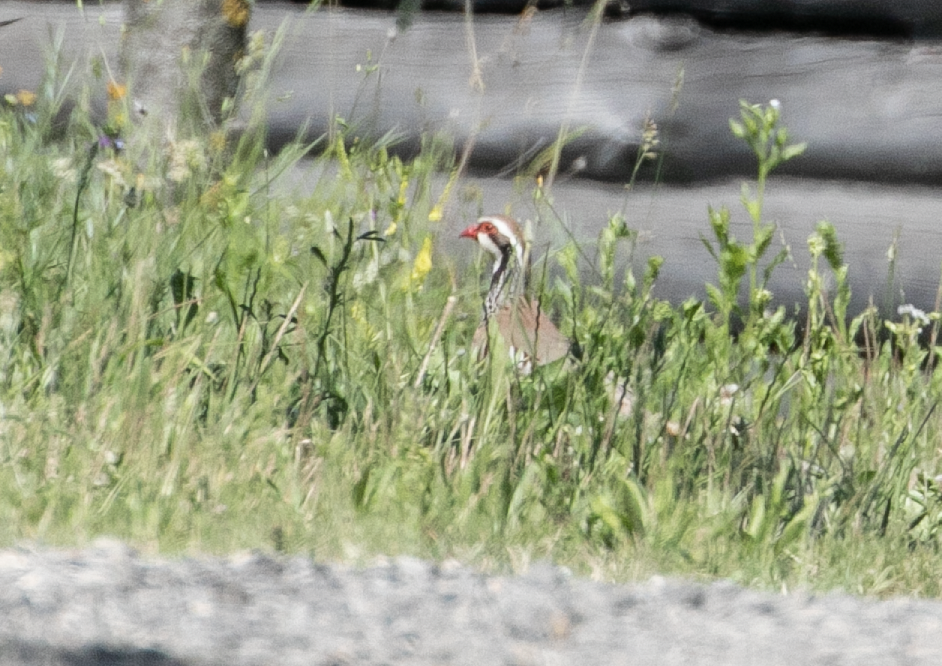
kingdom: Animalia
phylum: Chordata
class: Aves
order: Galliformes
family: Phasianidae
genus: Alectoris
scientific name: Alectoris rufa
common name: Red-legged partridge
